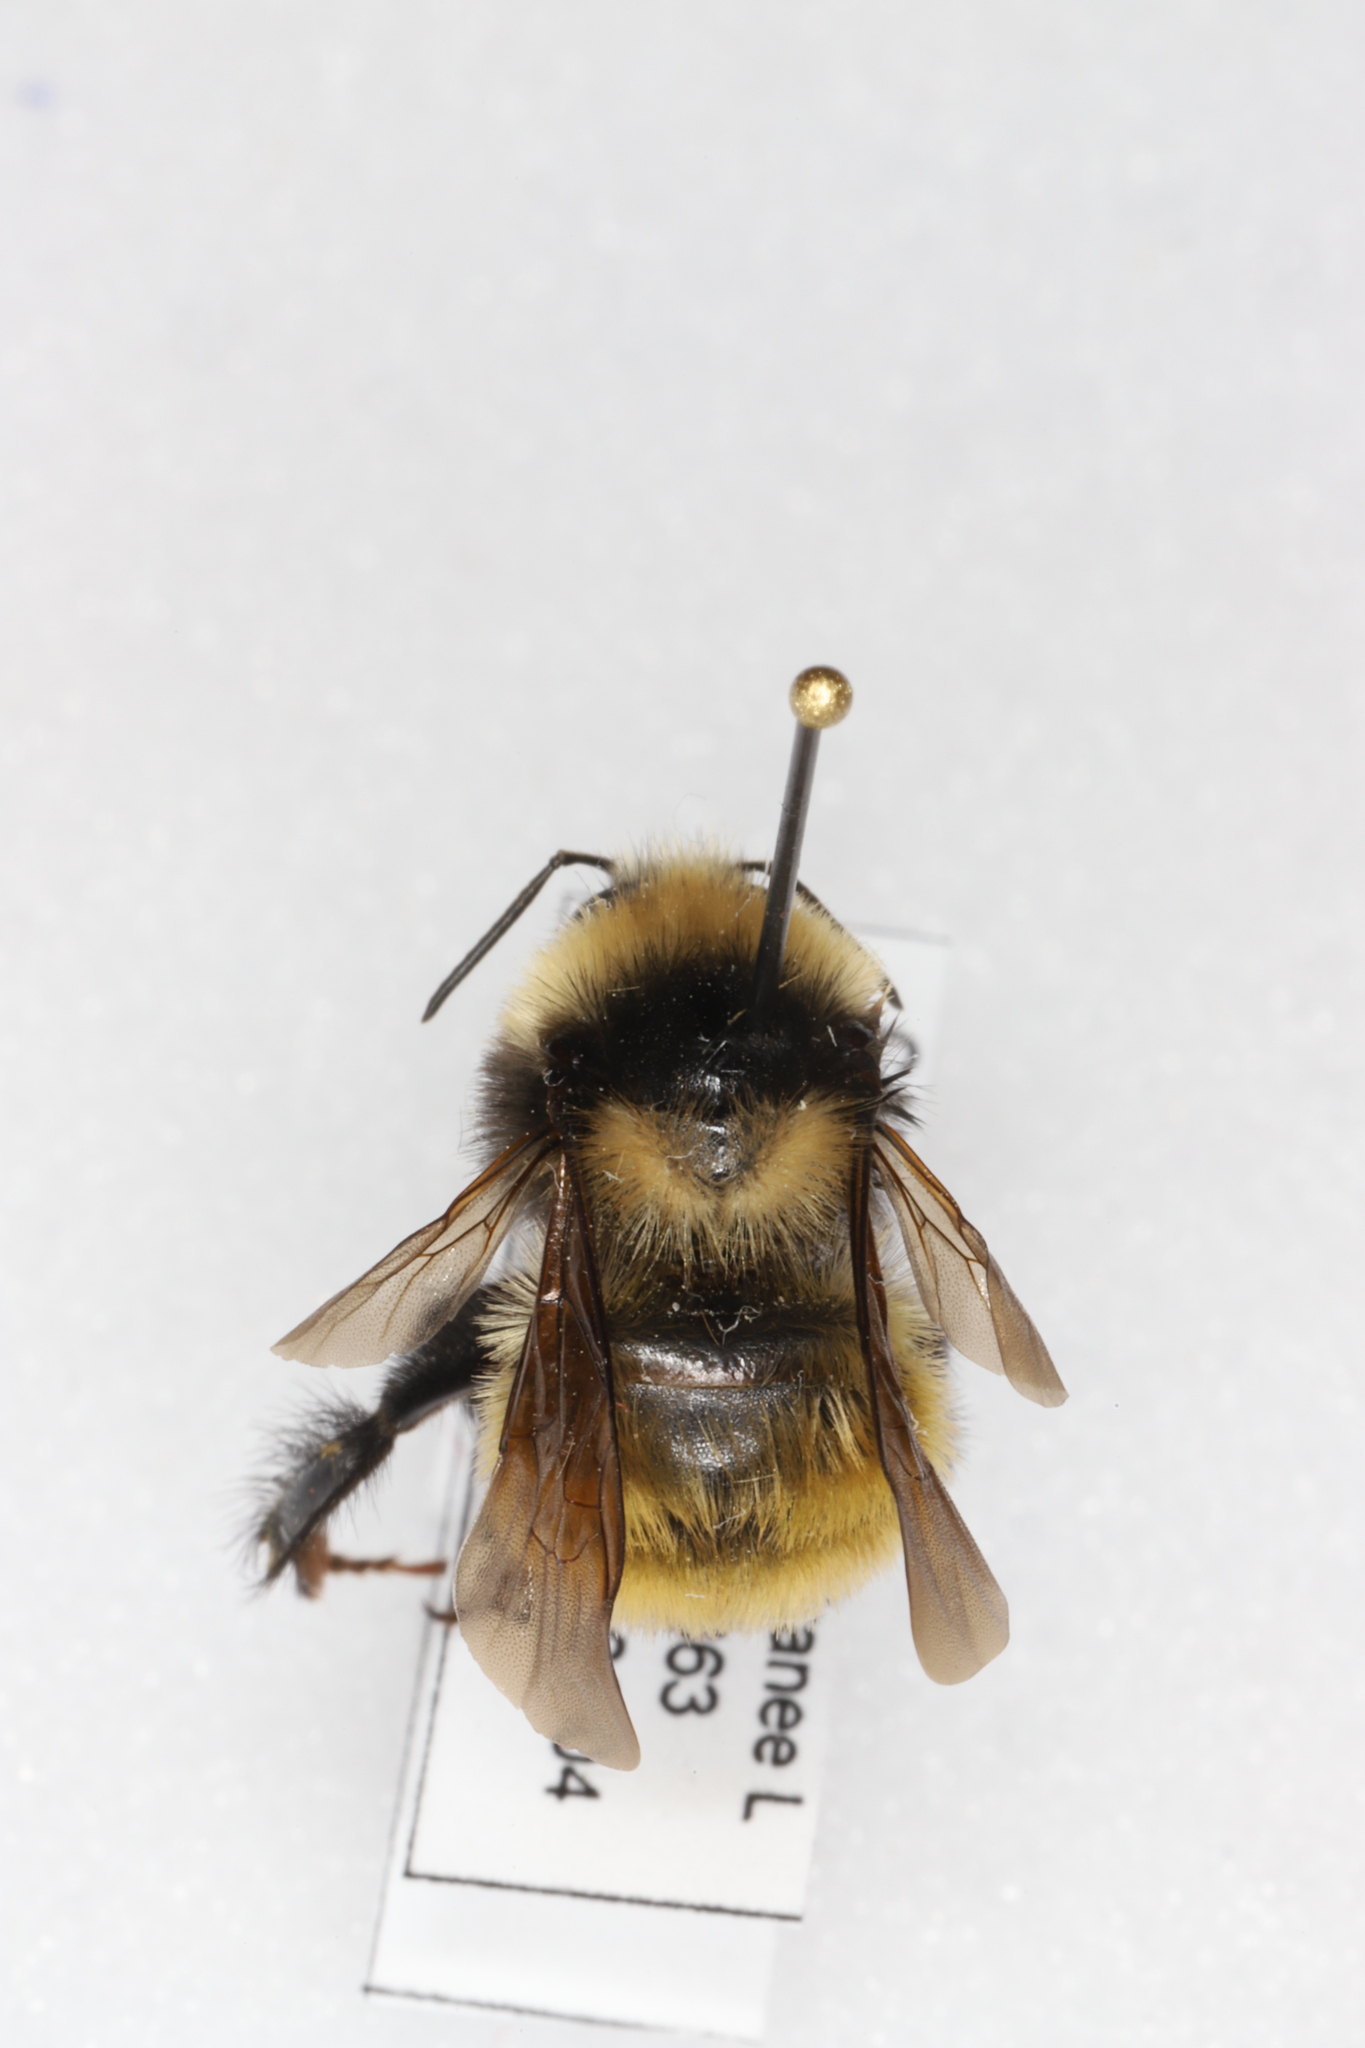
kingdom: Animalia
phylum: Arthropoda
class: Insecta
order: Hymenoptera
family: Apidae
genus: Bombus
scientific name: Bombus borealis
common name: Northern amber bumble bee
